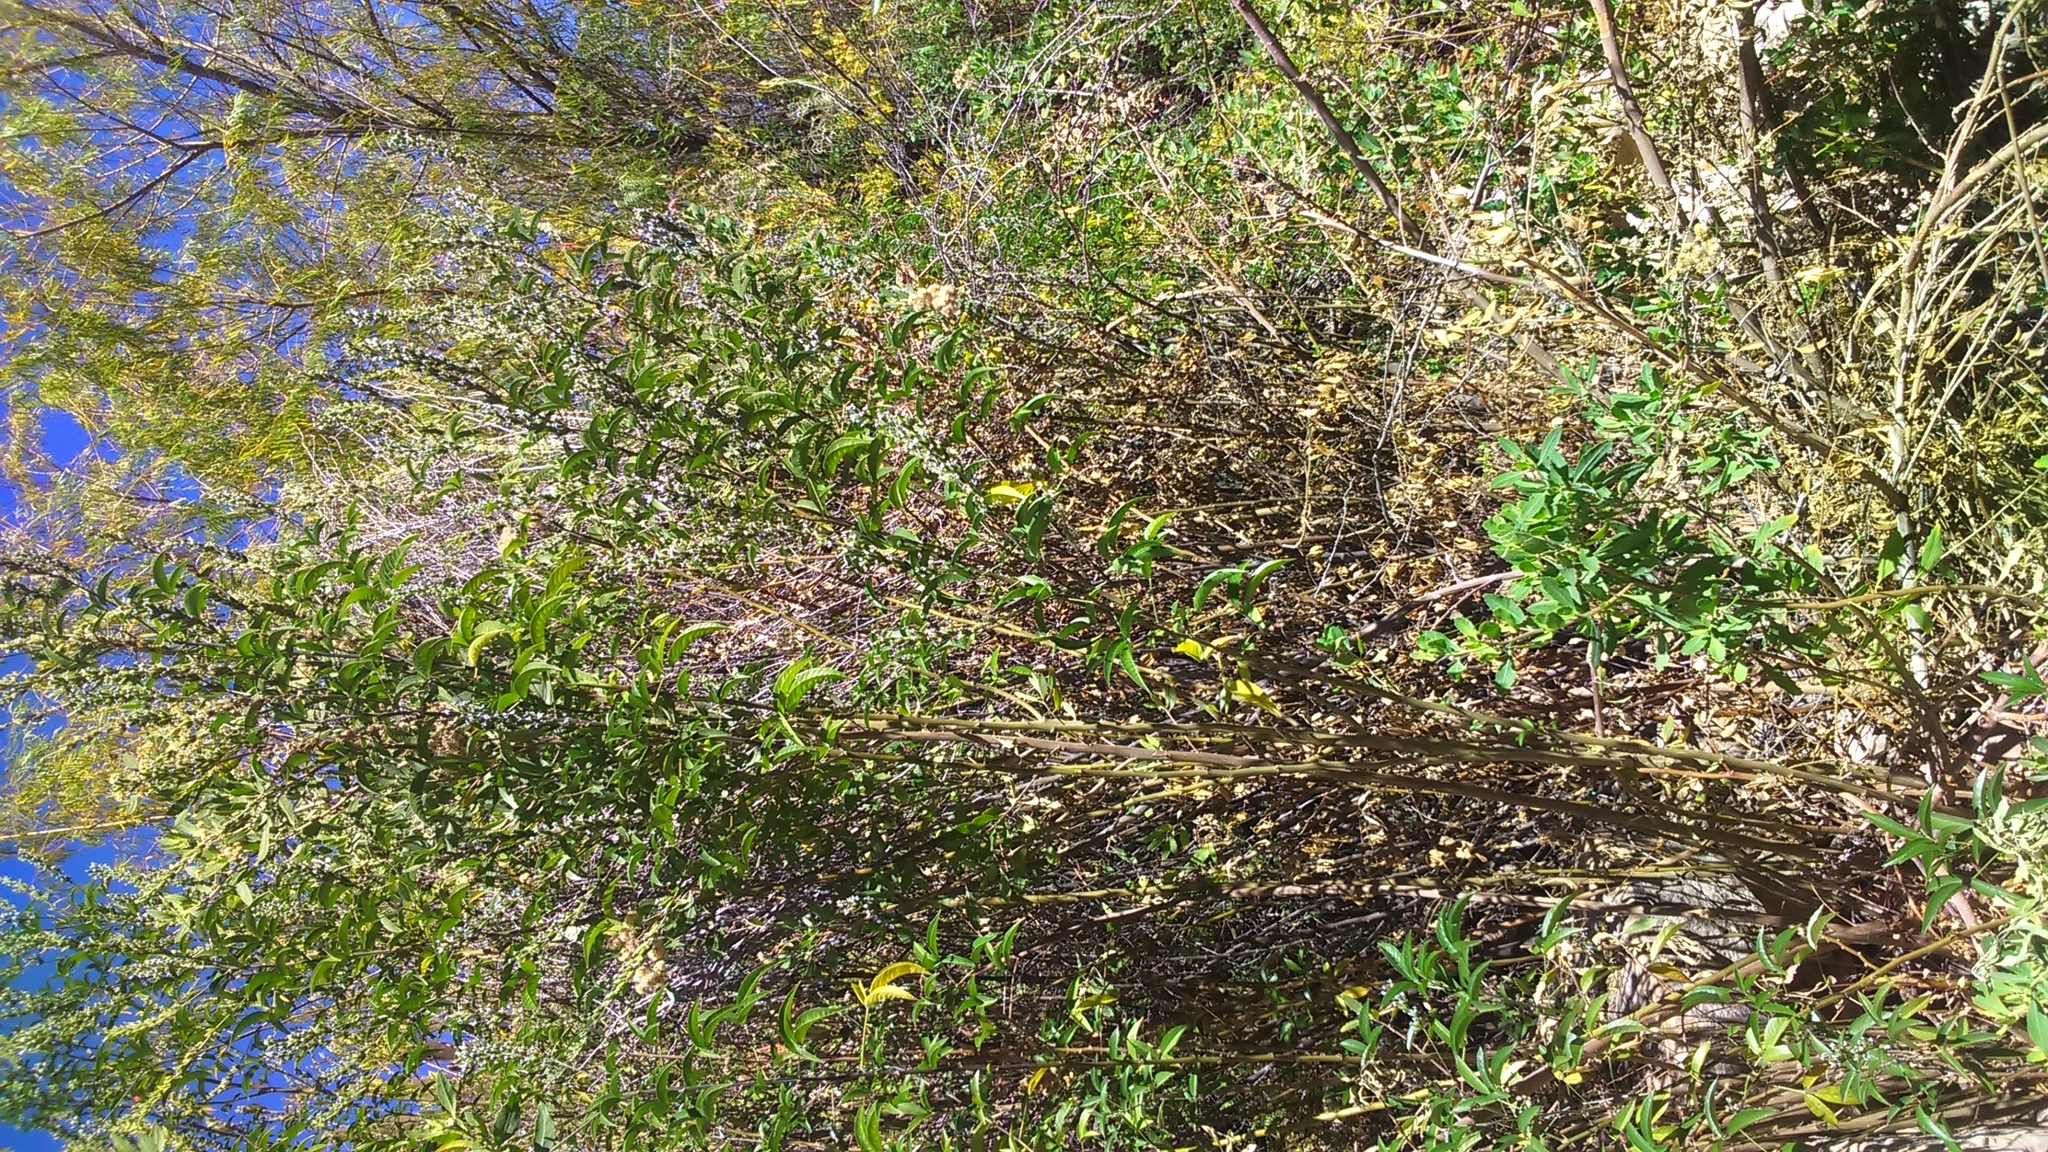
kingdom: Plantae
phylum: Tracheophyta
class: Magnoliopsida
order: Fabales
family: Fabaceae
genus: Psoralea
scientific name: Psoralea Otholobium pubescens
